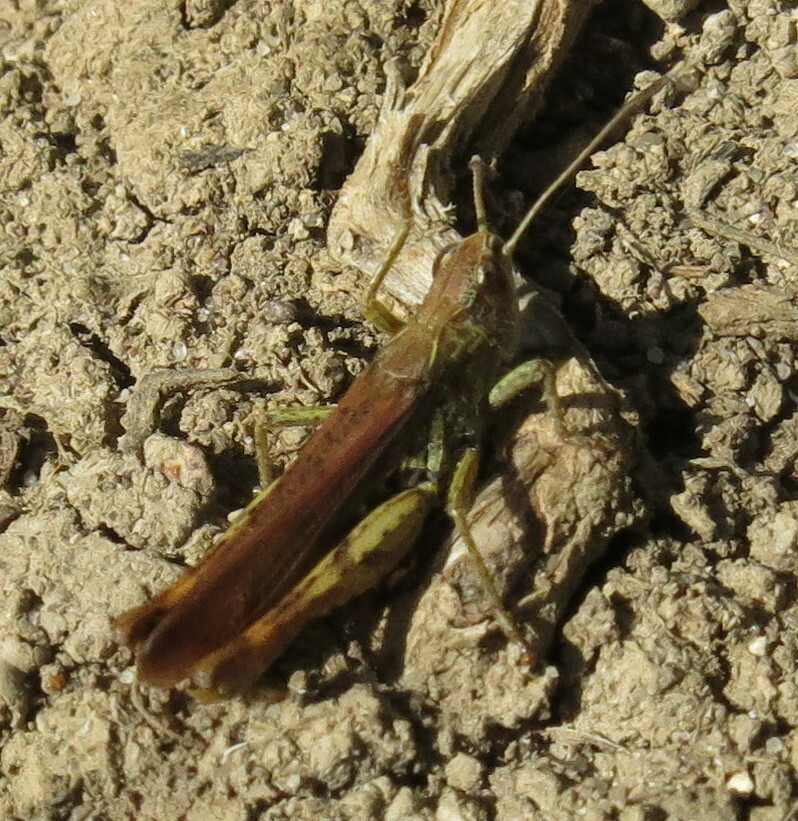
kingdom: Animalia
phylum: Arthropoda
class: Insecta
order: Orthoptera
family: Acrididae
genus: Gomphocerippus
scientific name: Gomphocerippus rufus
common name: Rufous grasshopper
